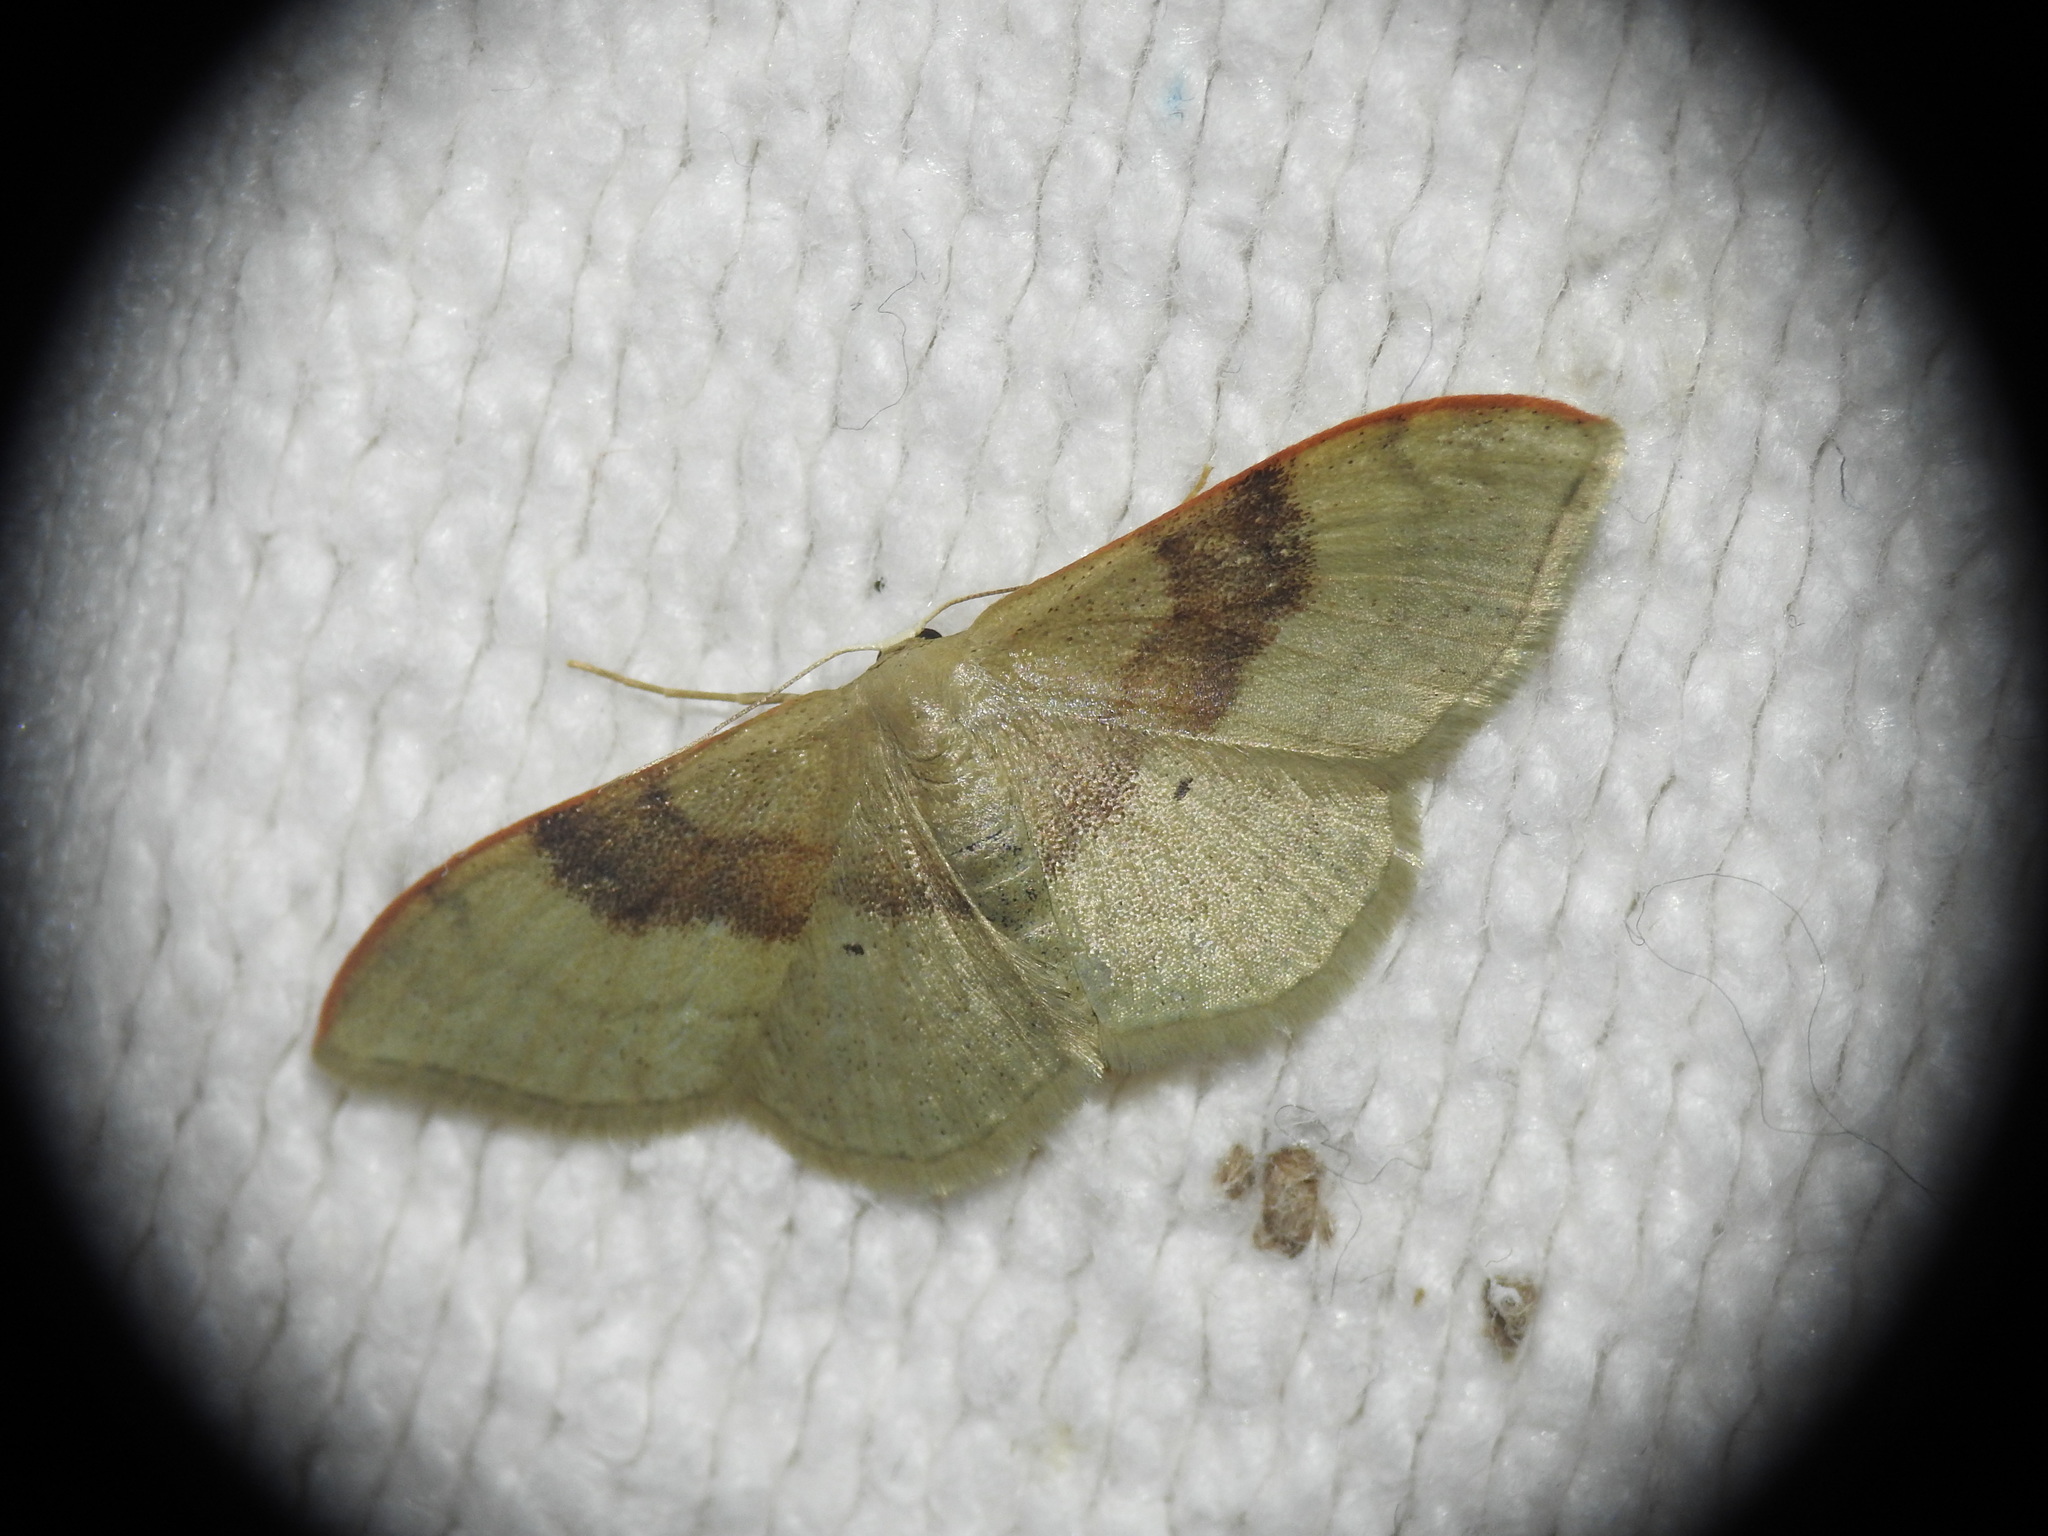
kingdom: Animalia
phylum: Arthropoda
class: Insecta
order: Lepidoptera
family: Geometridae
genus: Idaea
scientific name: Idaea degeneraria
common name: Portland ribbon wave
